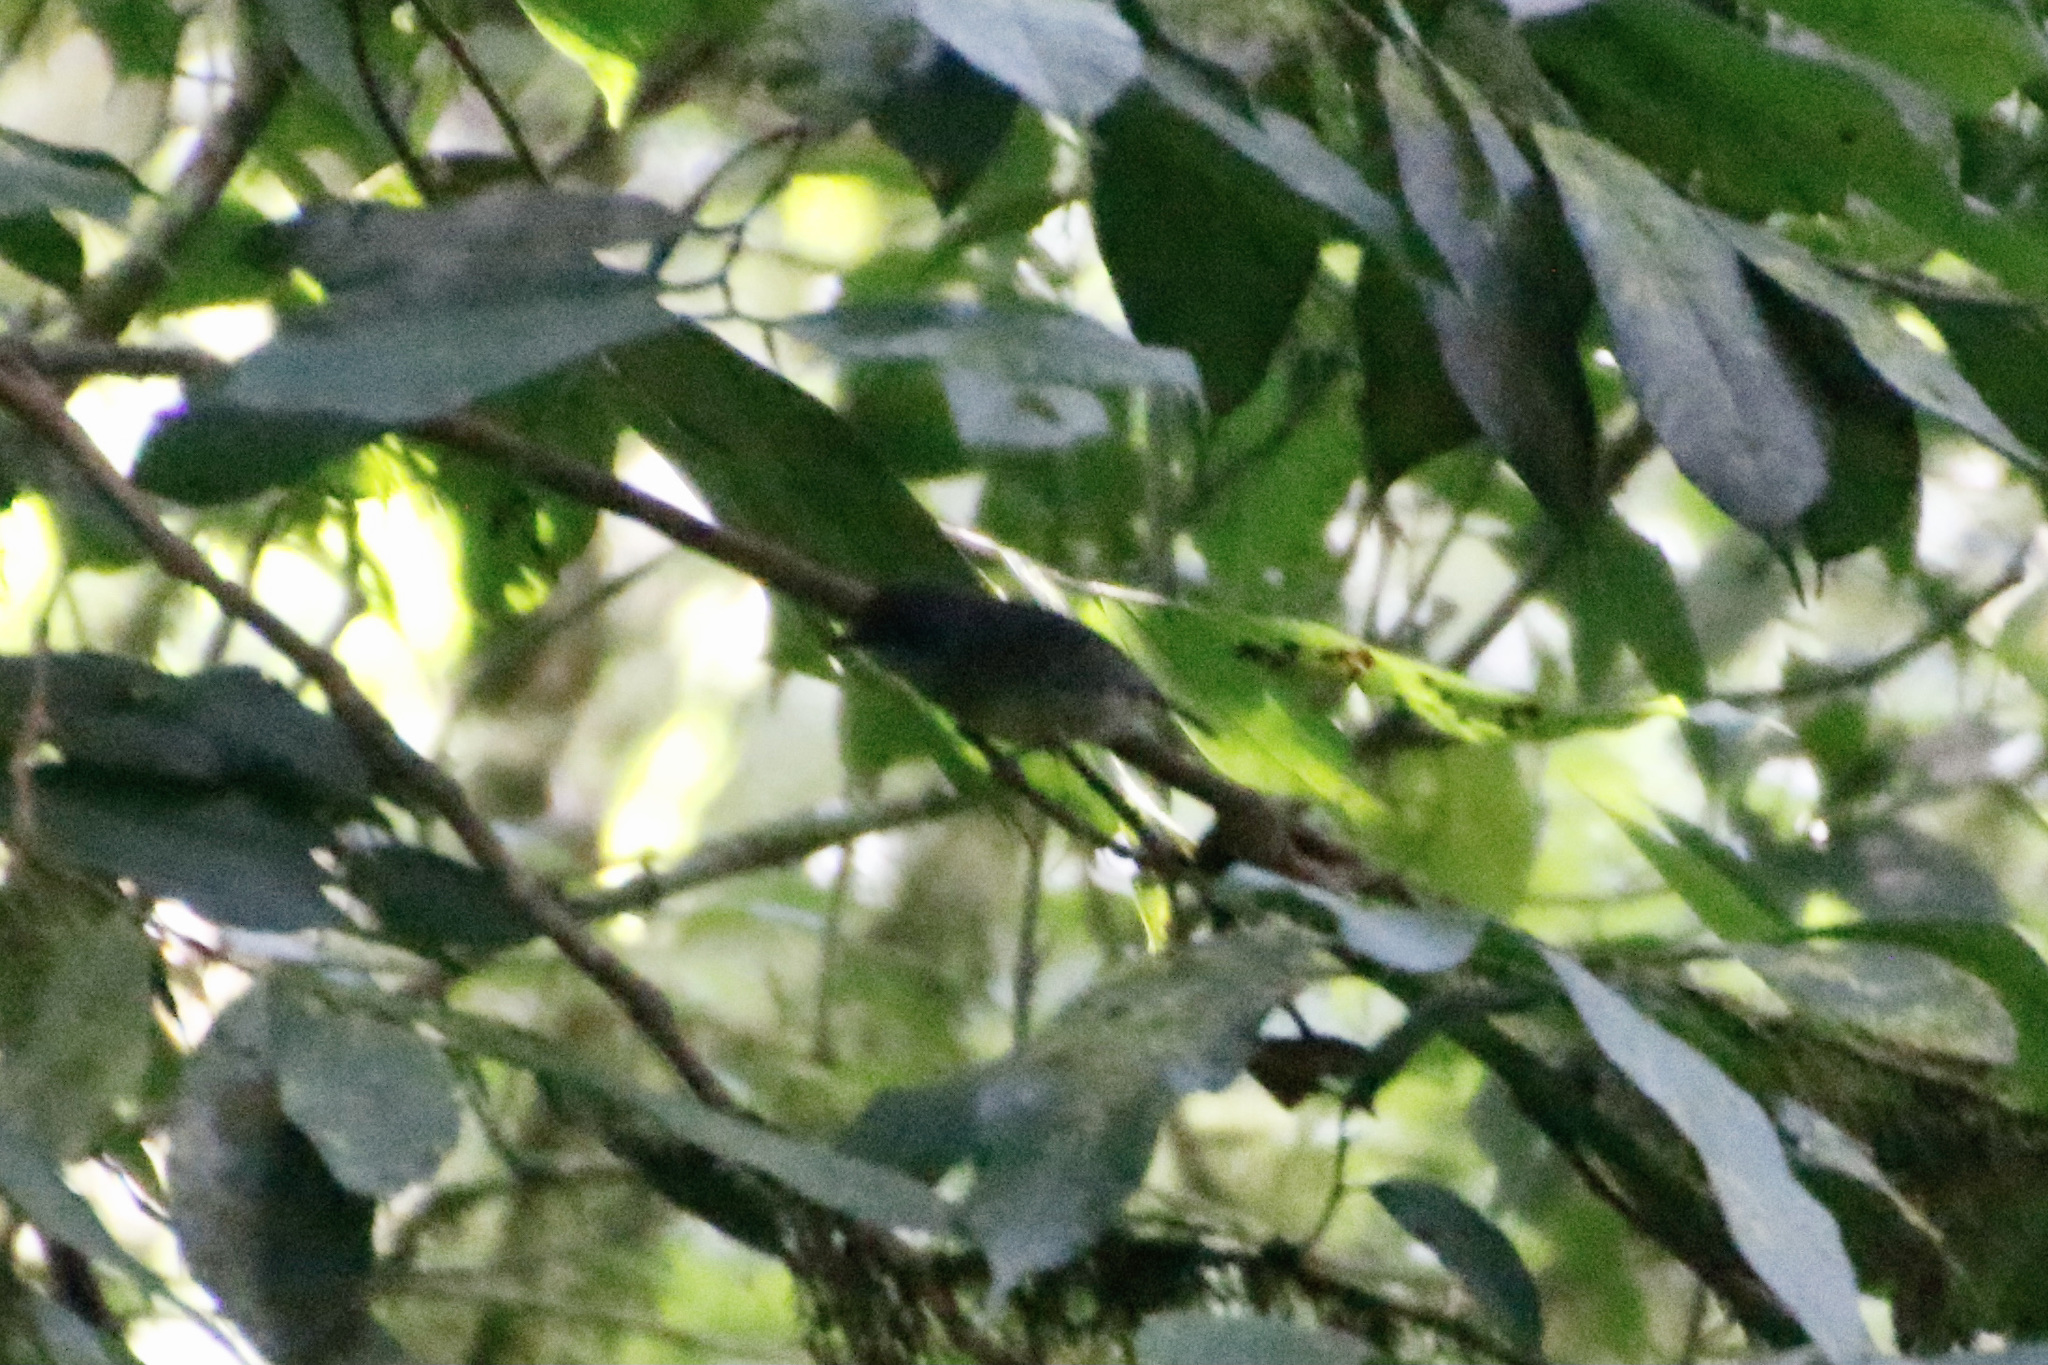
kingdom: Animalia
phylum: Chordata
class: Aves
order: Passeriformes
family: Thamnophilidae
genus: Dysithamnus
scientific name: Dysithamnus mentalis
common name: Plain antvireo
